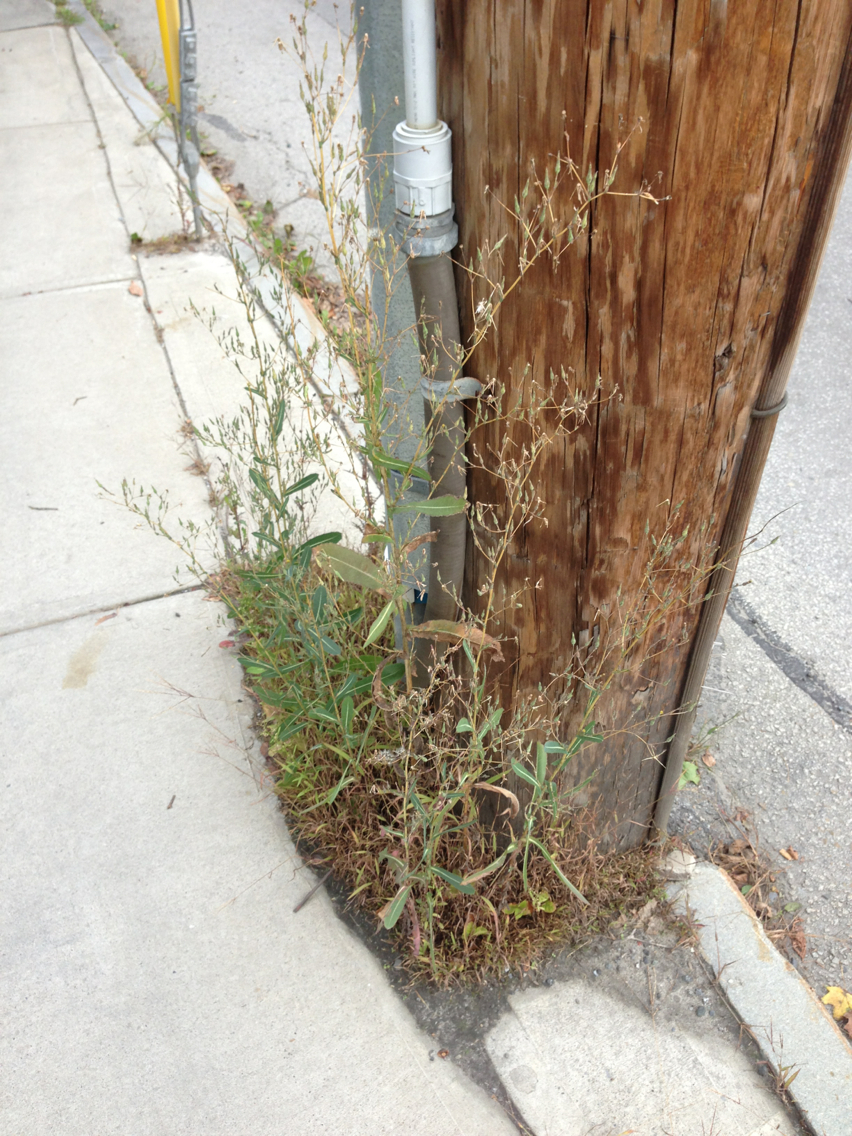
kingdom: Plantae
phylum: Tracheophyta
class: Magnoliopsida
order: Asterales
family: Asteraceae
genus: Lactuca
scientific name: Lactuca serriola
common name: Prickly lettuce
